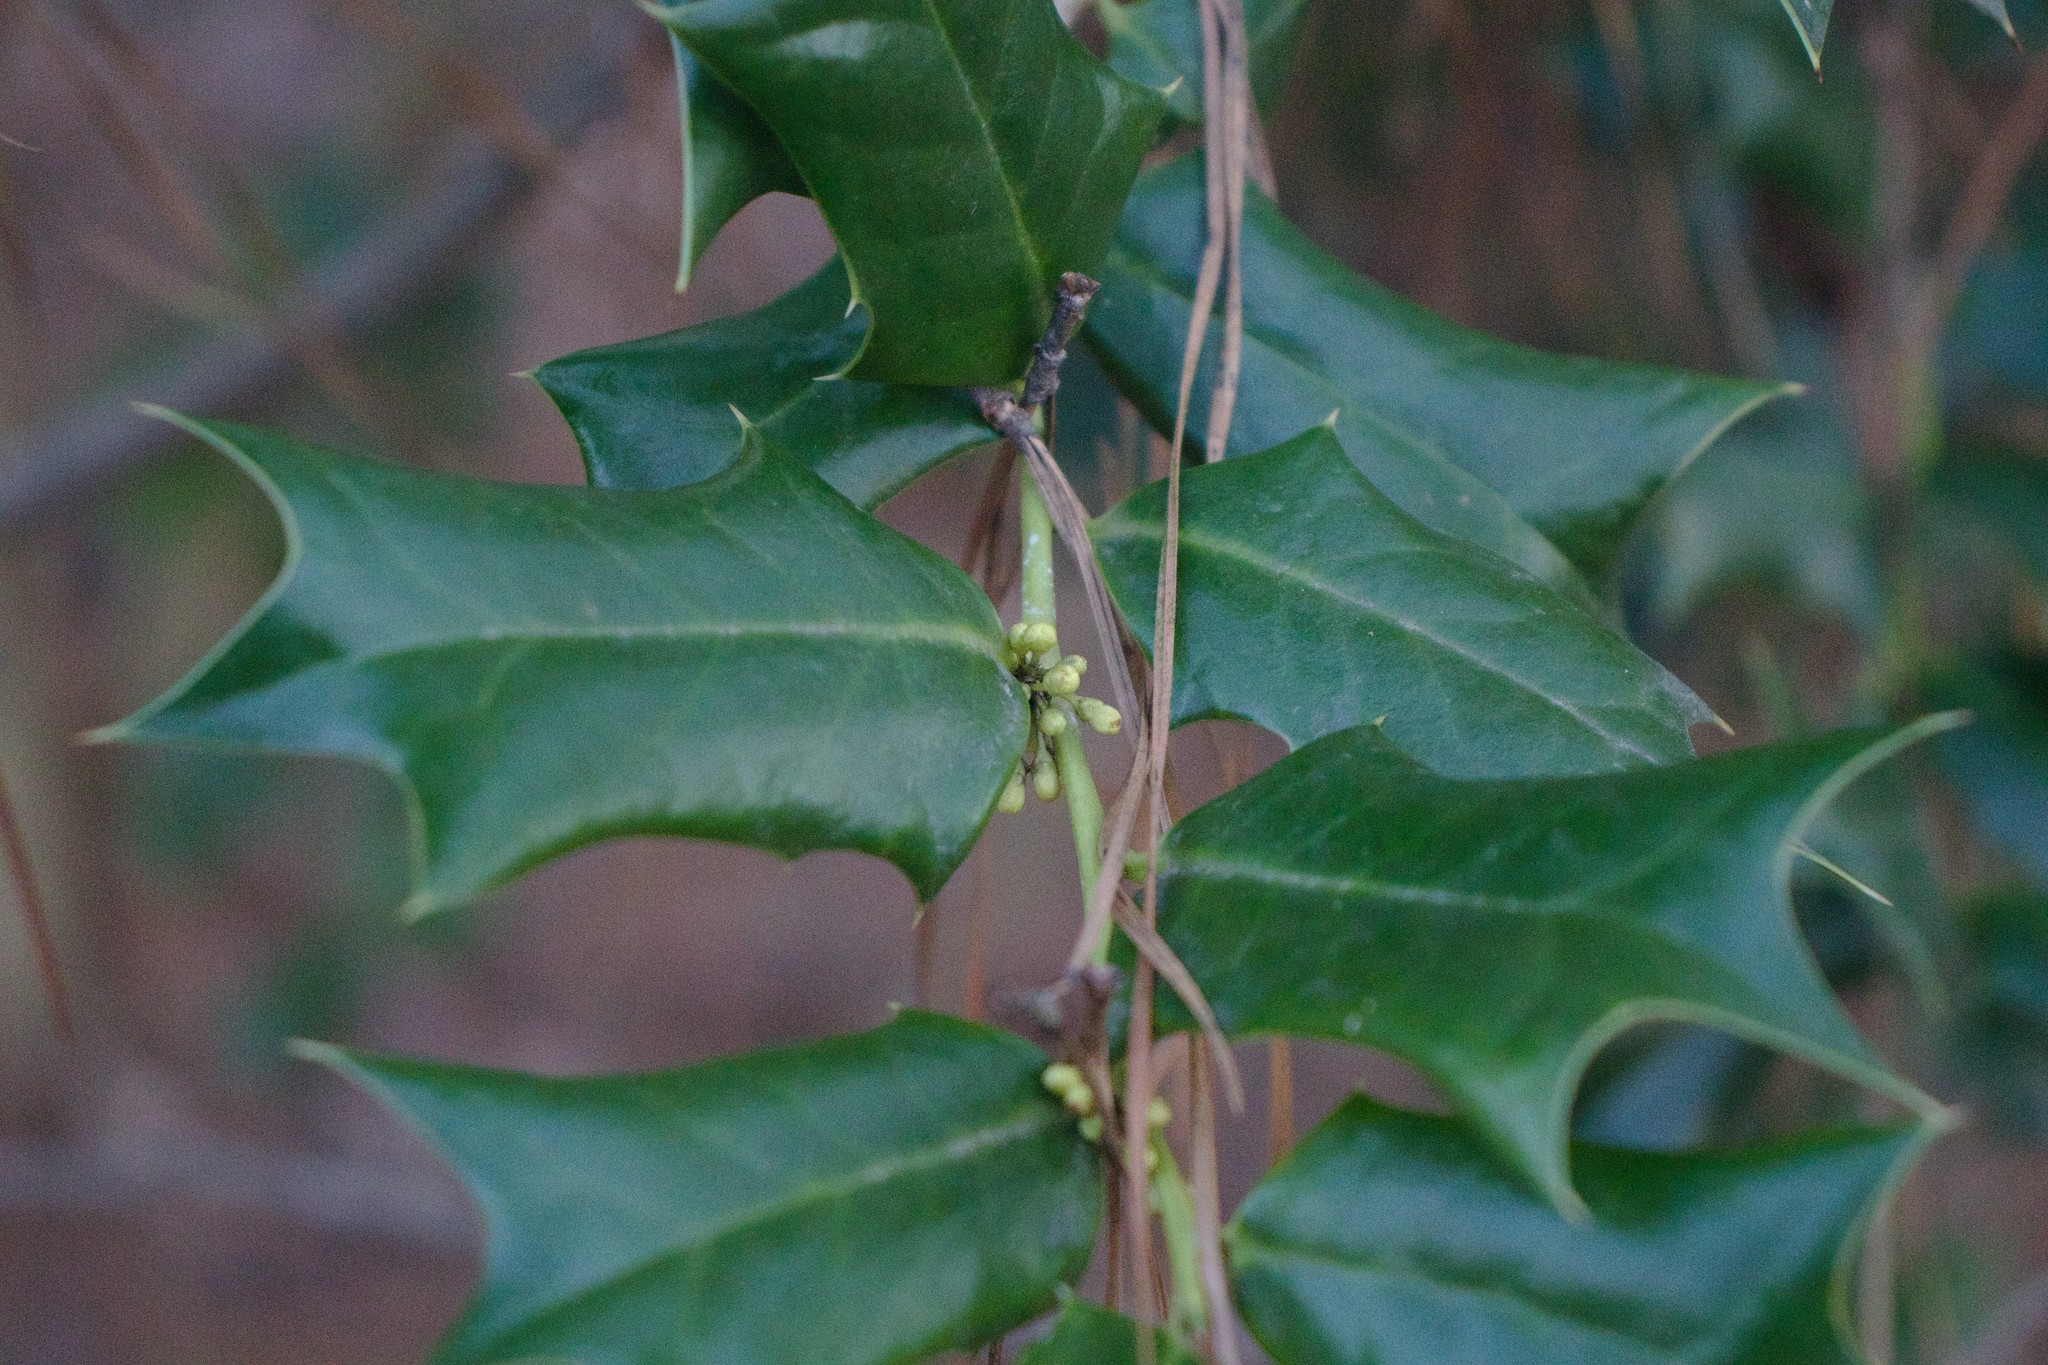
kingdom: Plantae
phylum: Tracheophyta
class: Magnoliopsida
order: Aquifoliales
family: Aquifoliaceae
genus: Ilex
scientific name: Ilex cornuta
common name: Chinese holly
